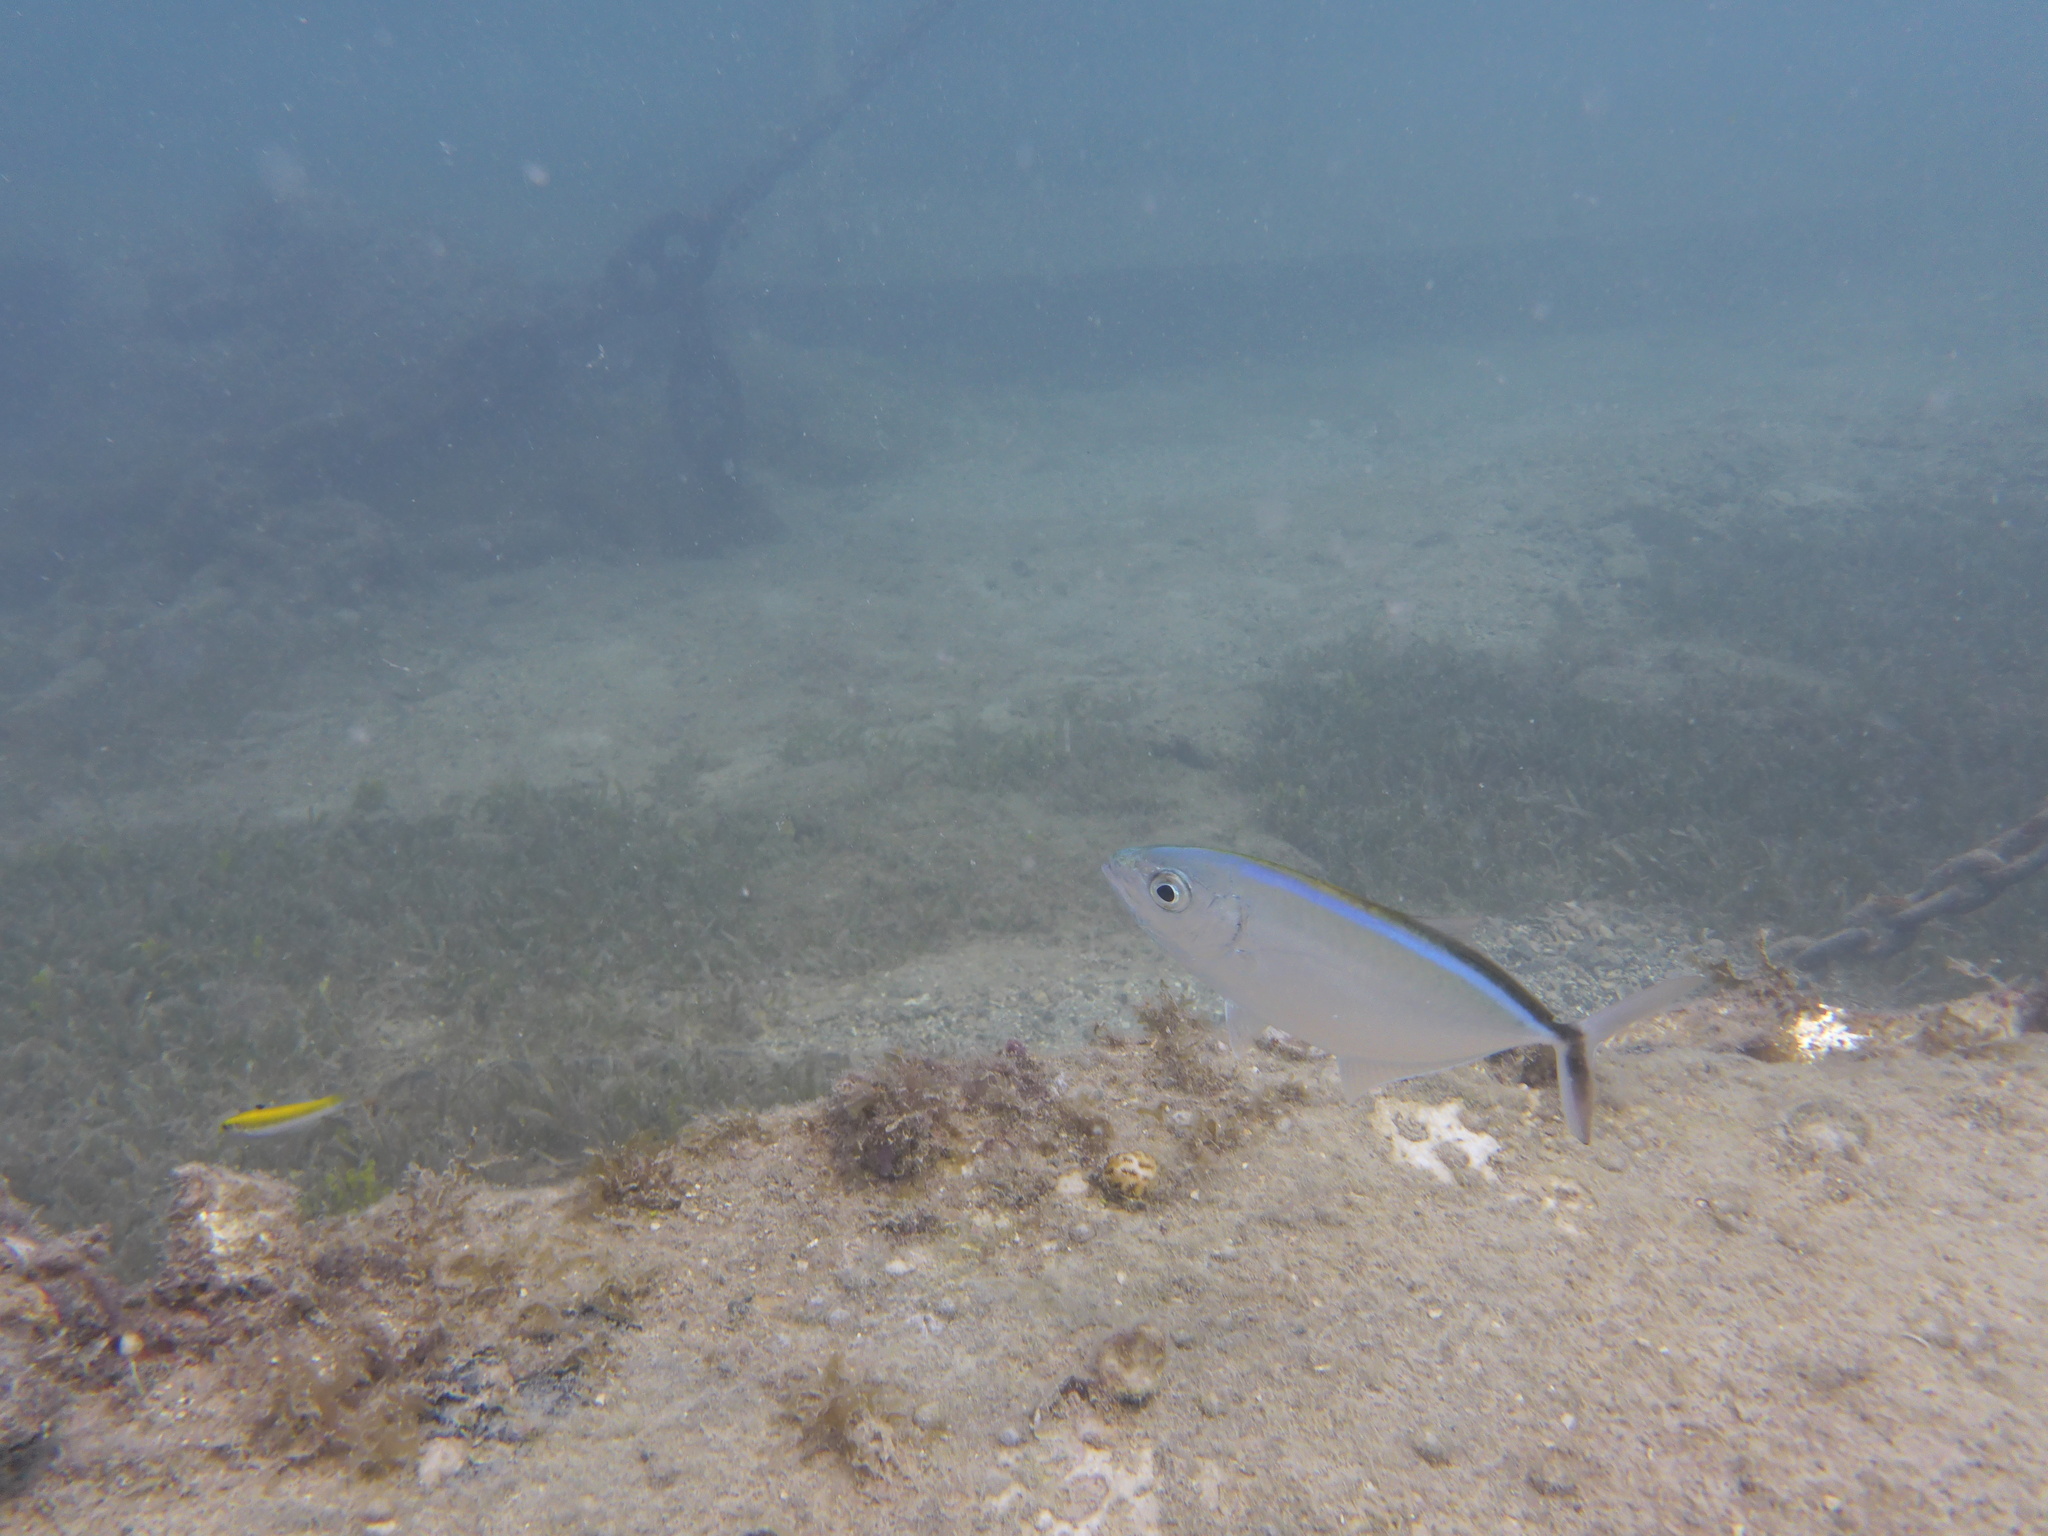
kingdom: Animalia
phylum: Chordata
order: Perciformes
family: Carangidae
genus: Caranx
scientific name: Caranx ruber
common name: Bar jack
